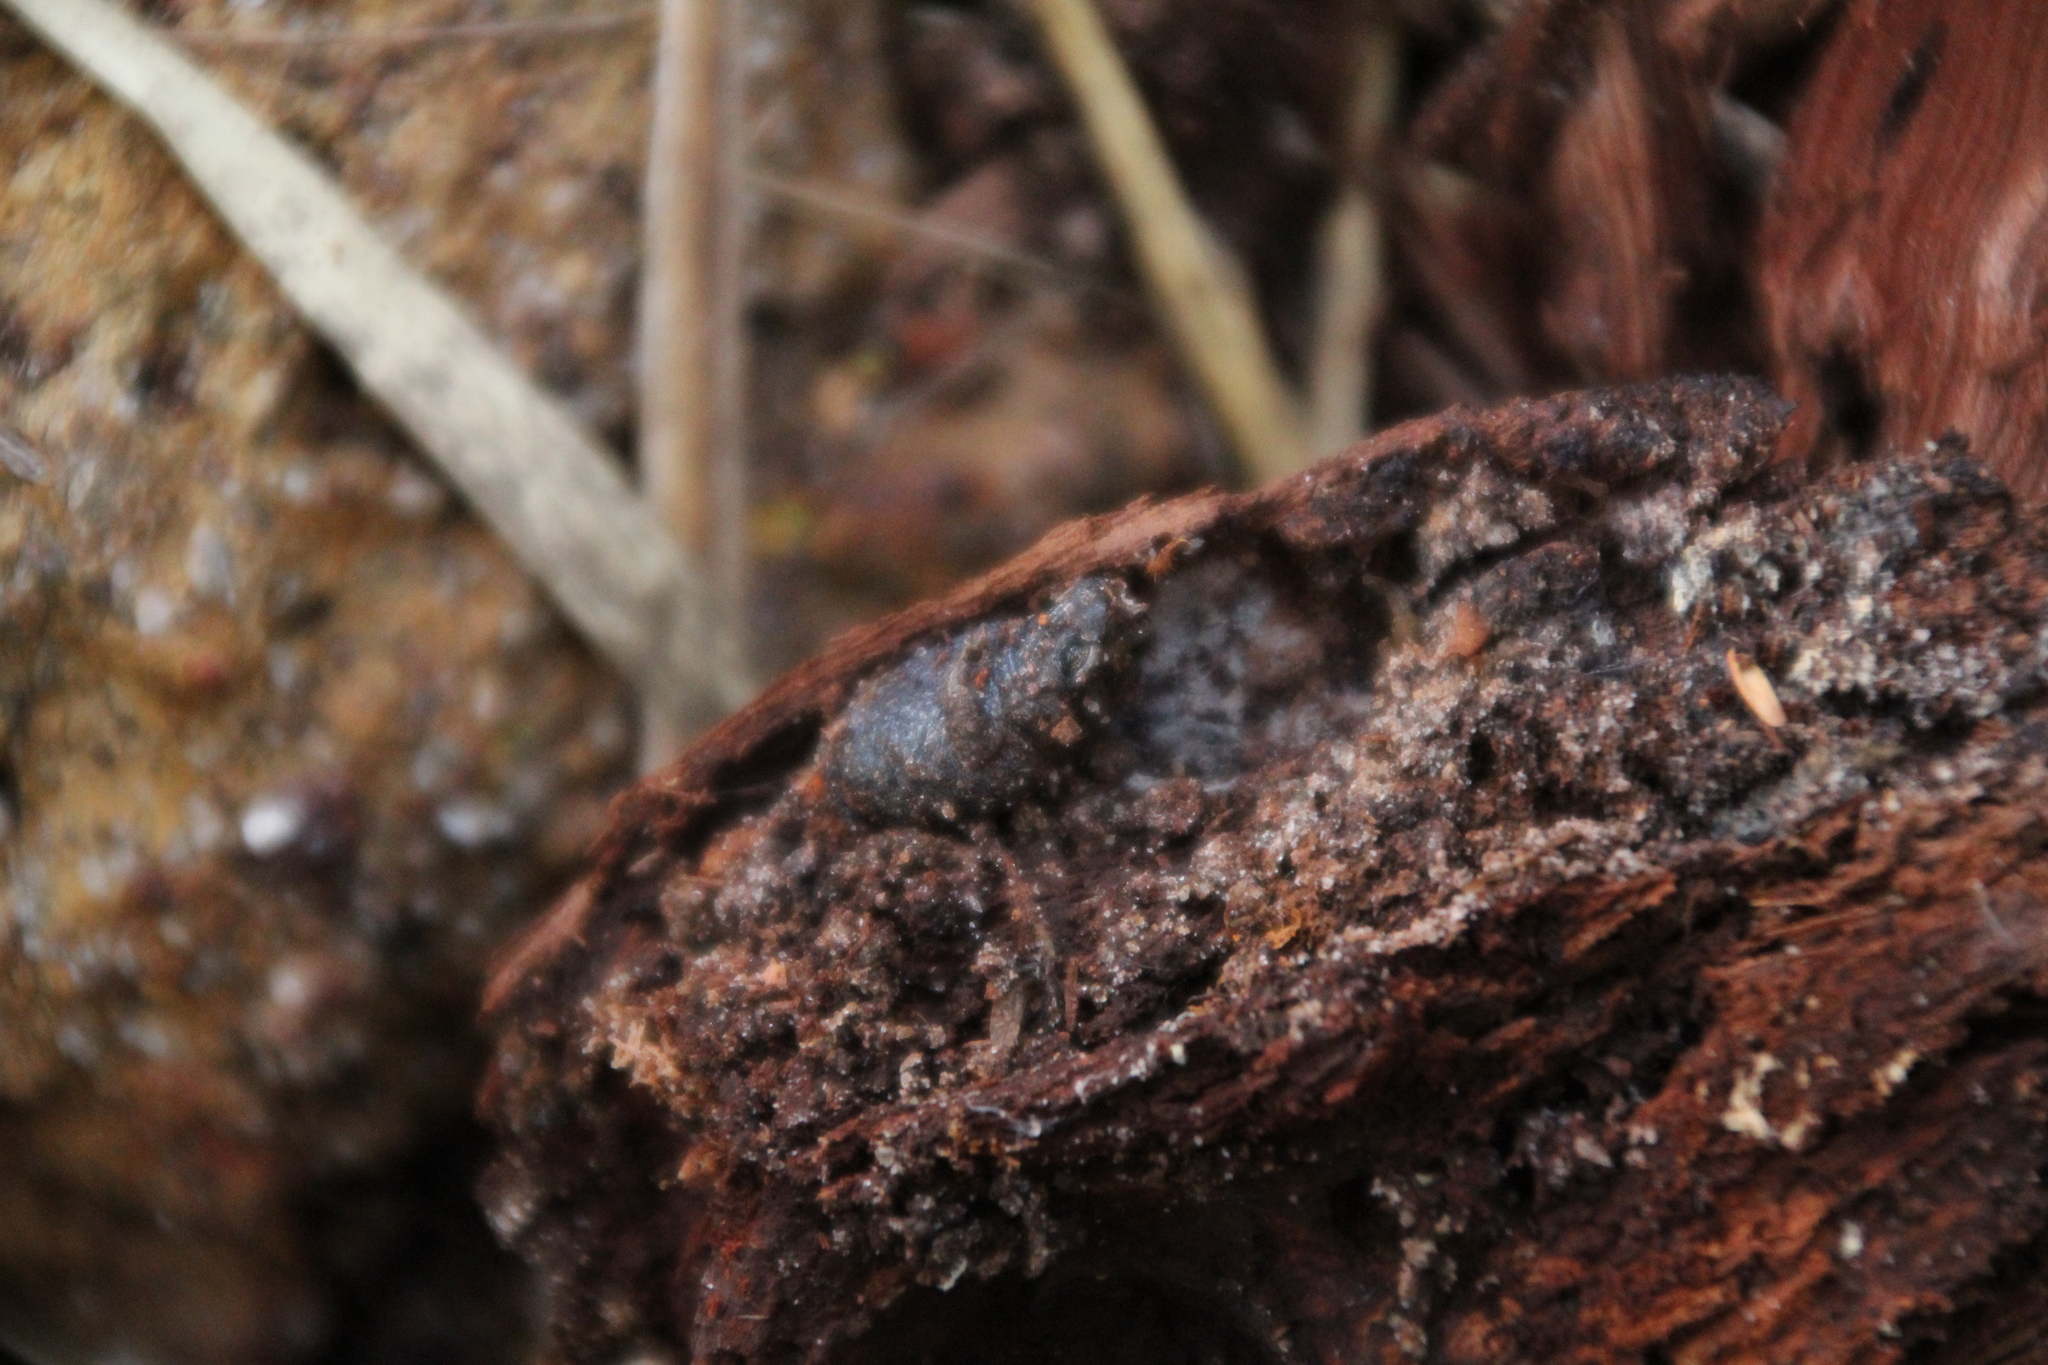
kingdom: Animalia
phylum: Chordata
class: Amphibia
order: Anura
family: Myobatrachidae
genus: Metacrinia
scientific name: Metacrinia nichollsi
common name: Nicholl’s toadlet
